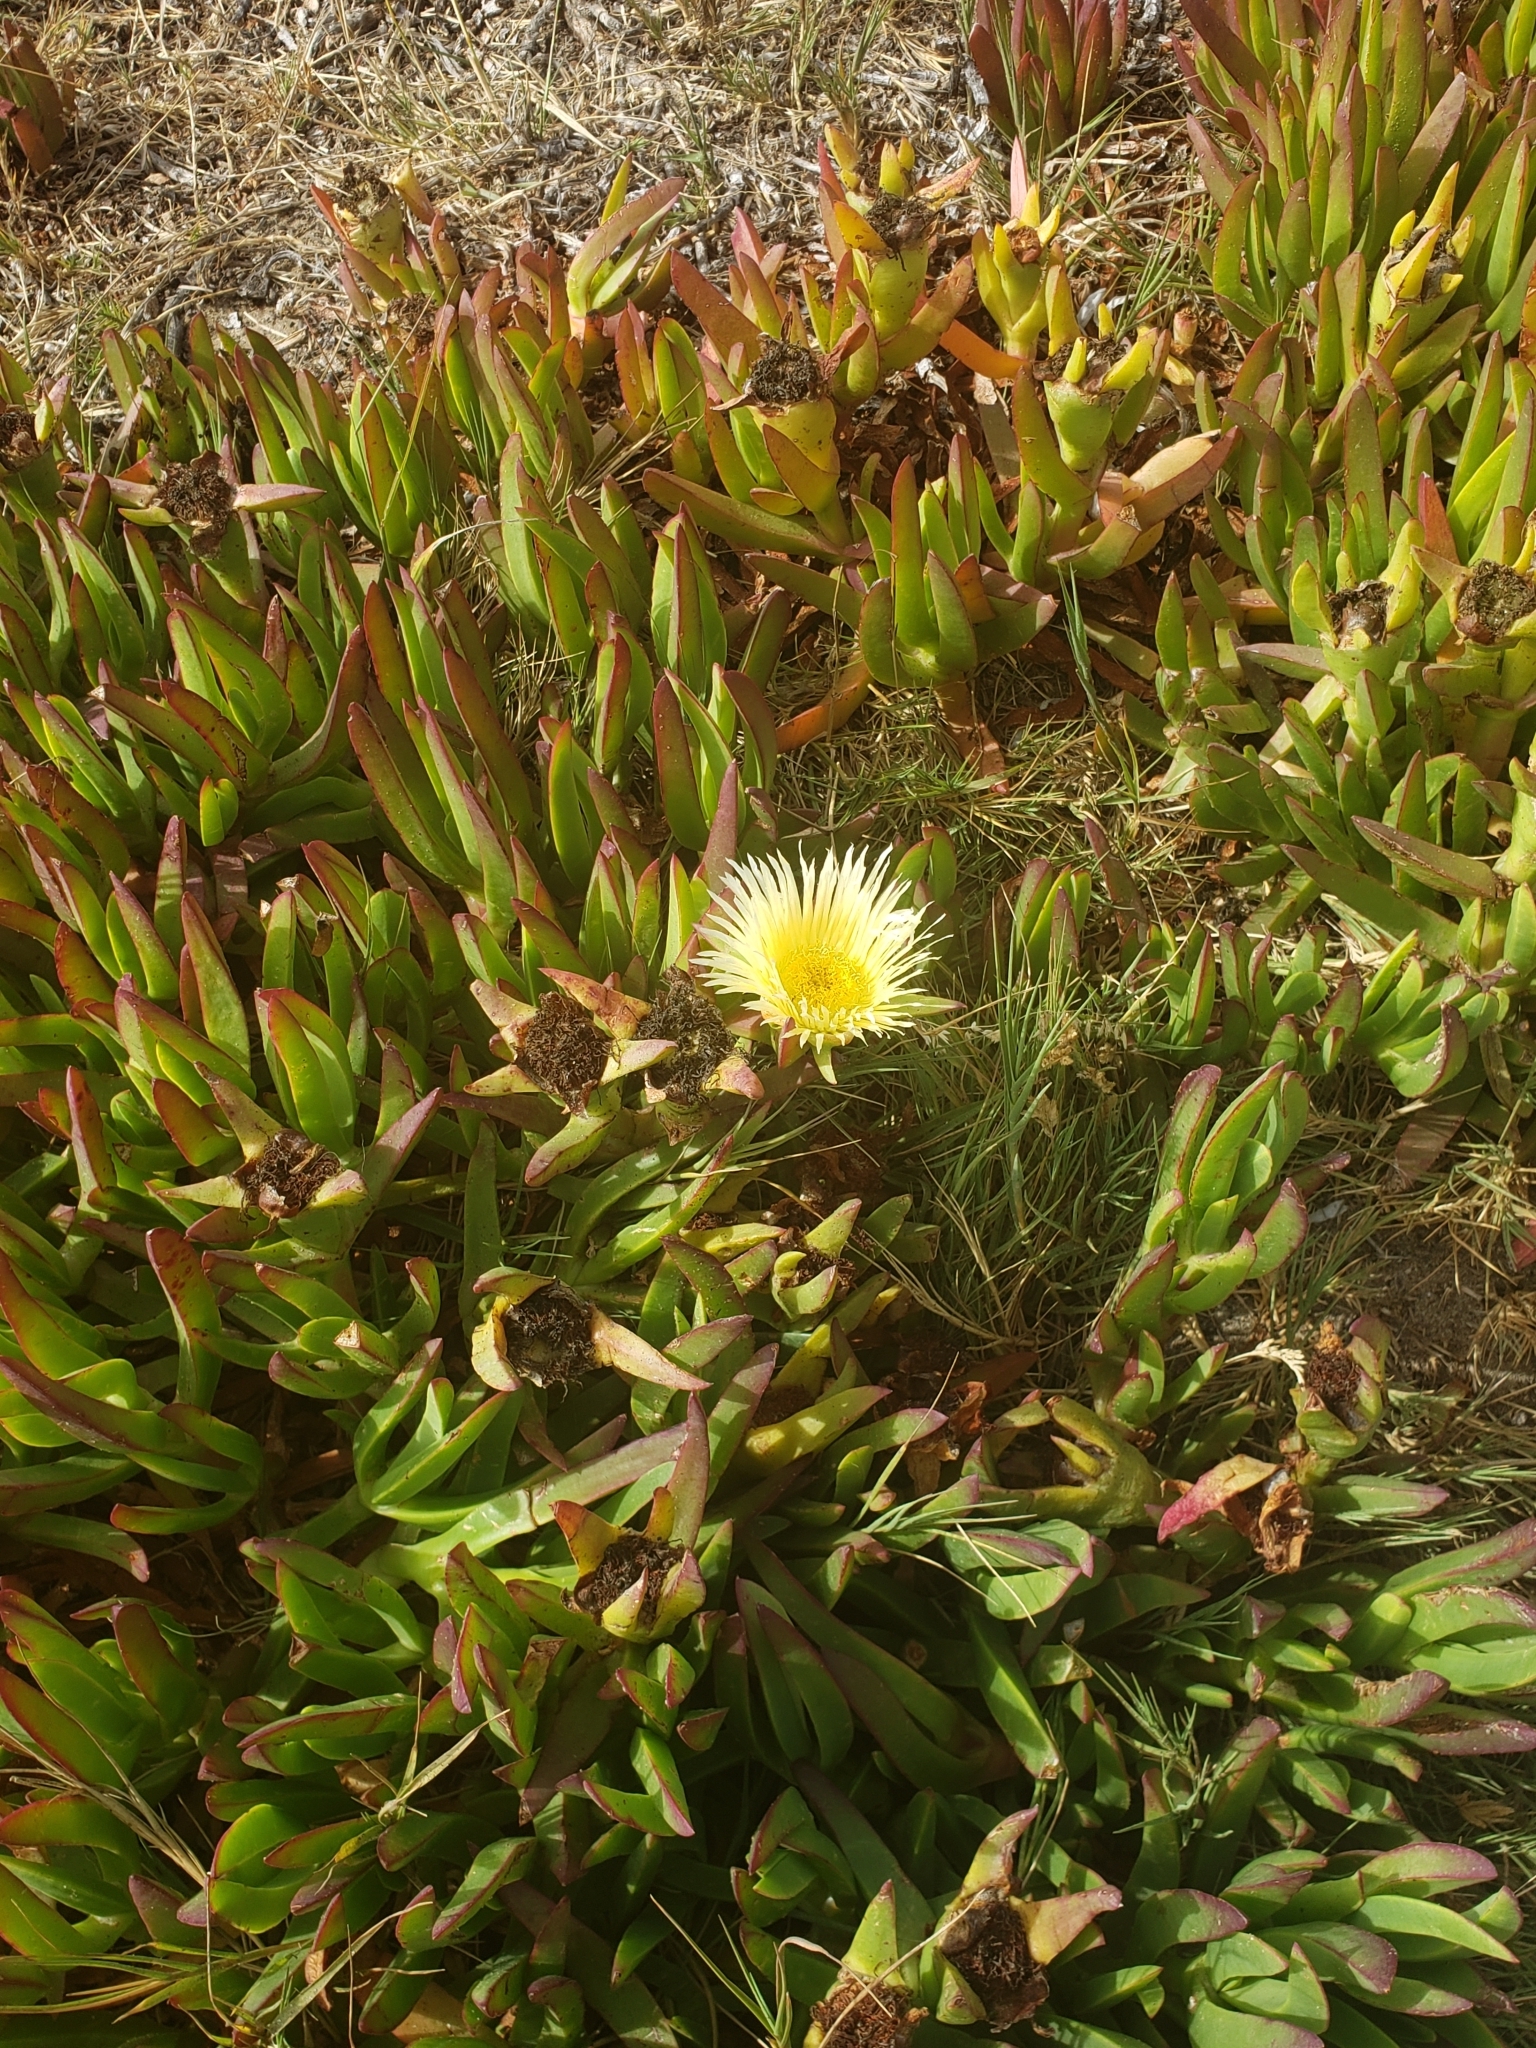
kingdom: Plantae
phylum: Tracheophyta
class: Magnoliopsida
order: Caryophyllales
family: Aizoaceae
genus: Carpobrotus
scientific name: Carpobrotus edulis
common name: Hottentot-fig
